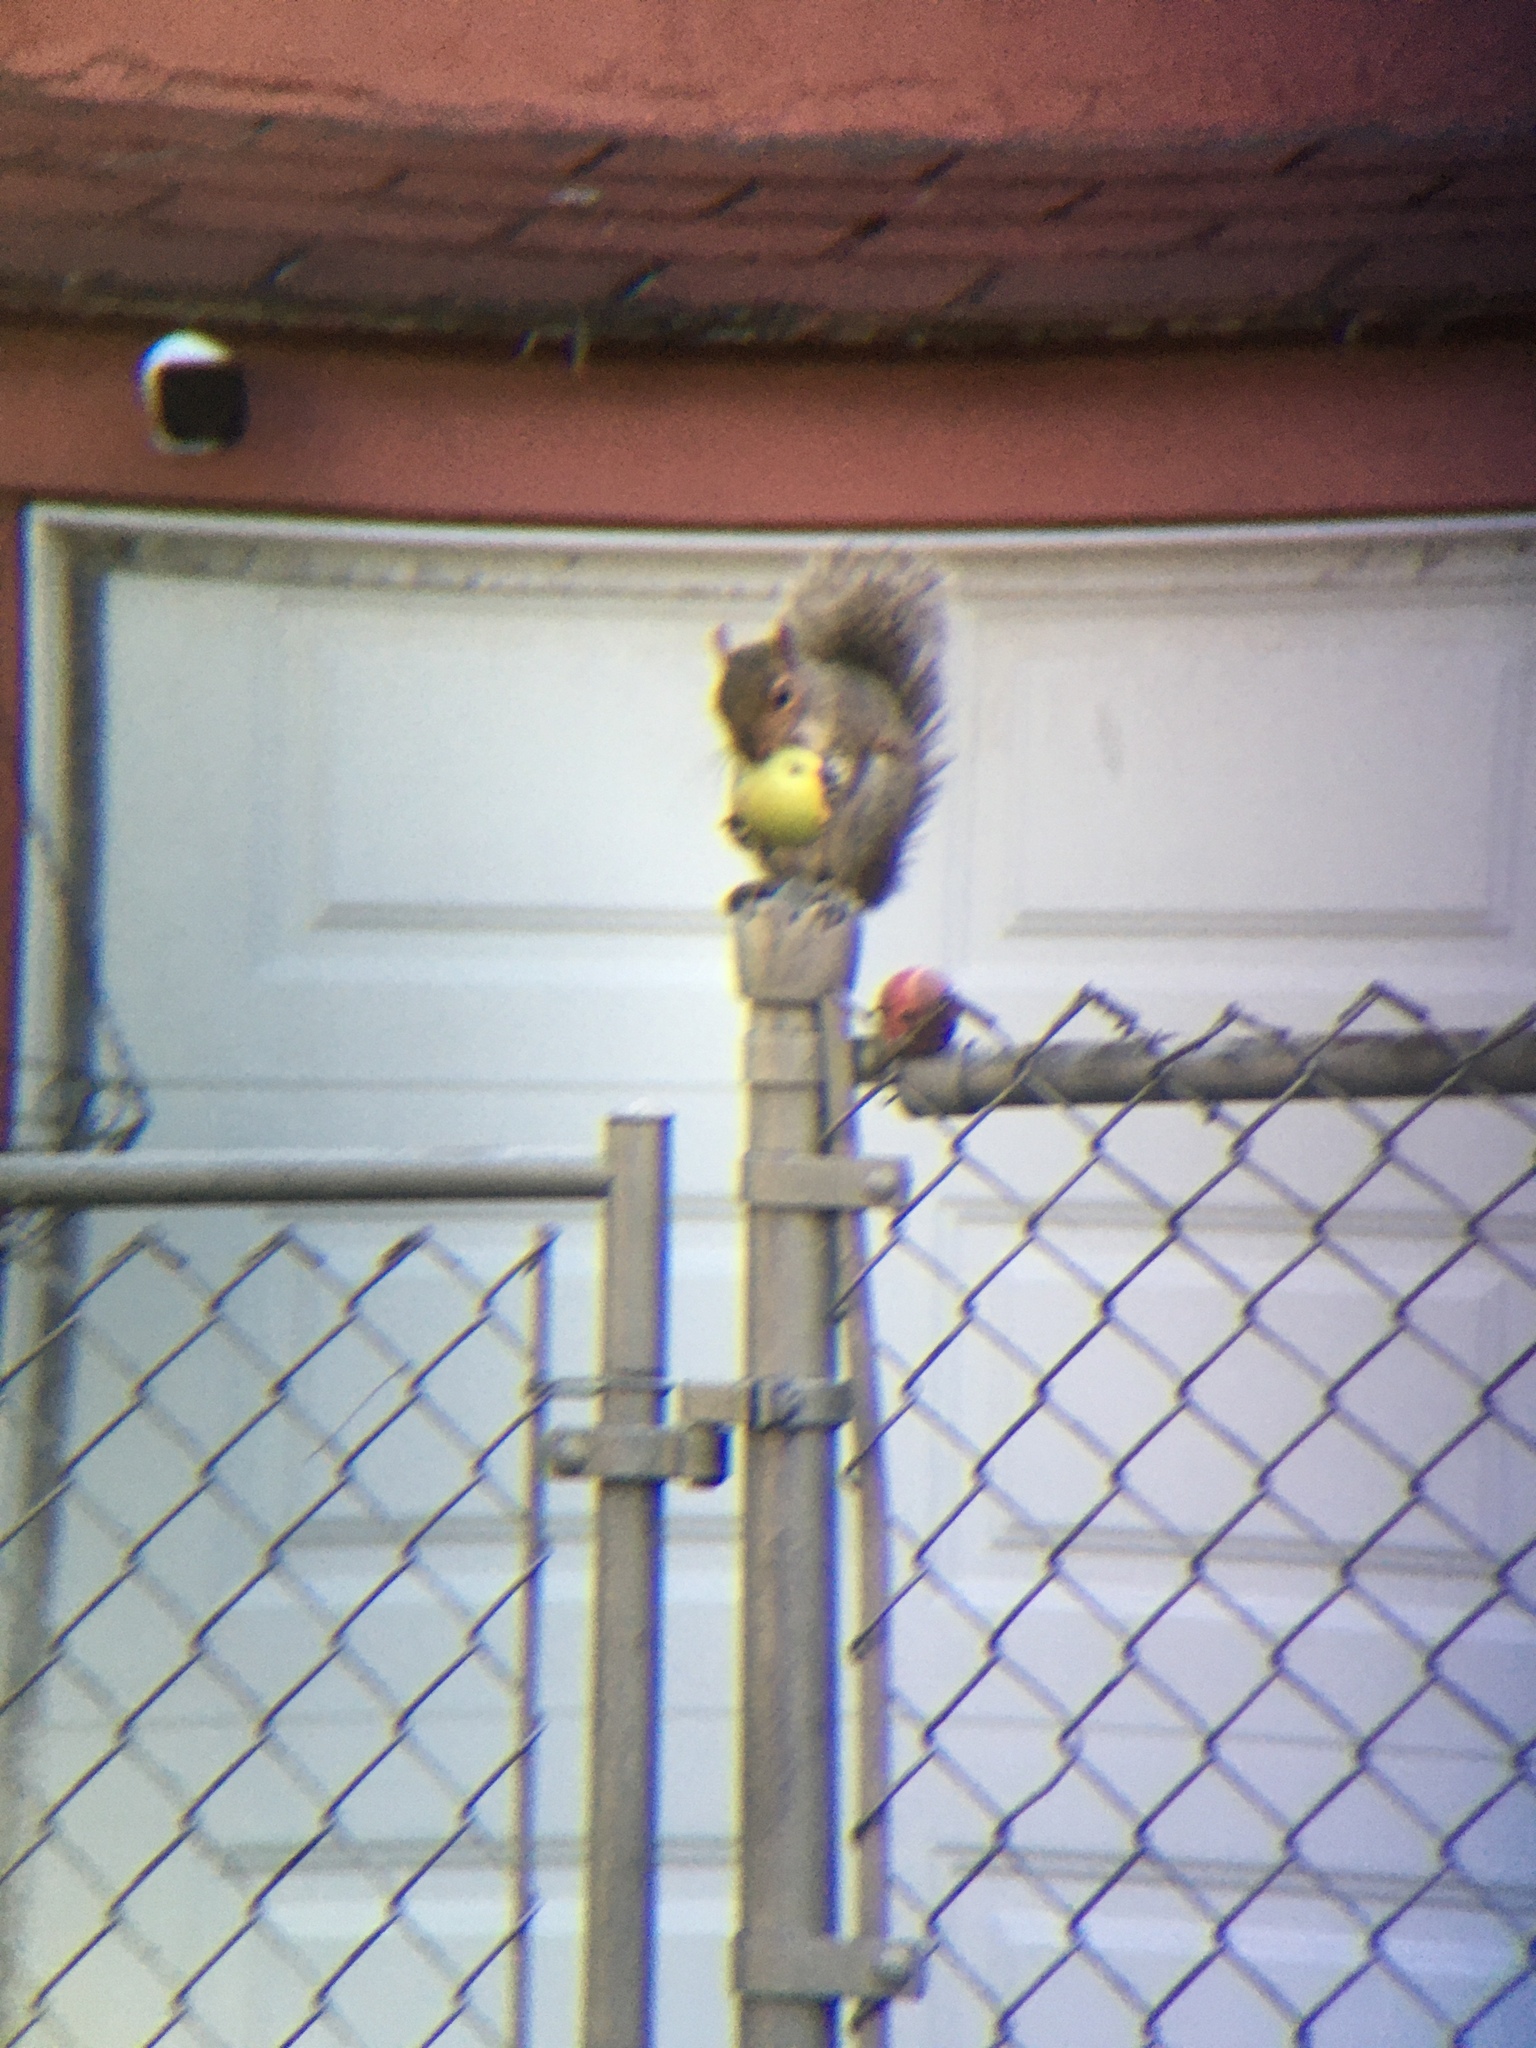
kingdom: Animalia
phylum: Chordata
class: Mammalia
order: Rodentia
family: Sciuridae
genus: Sciurus
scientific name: Sciurus carolinensis
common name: Eastern gray squirrel
